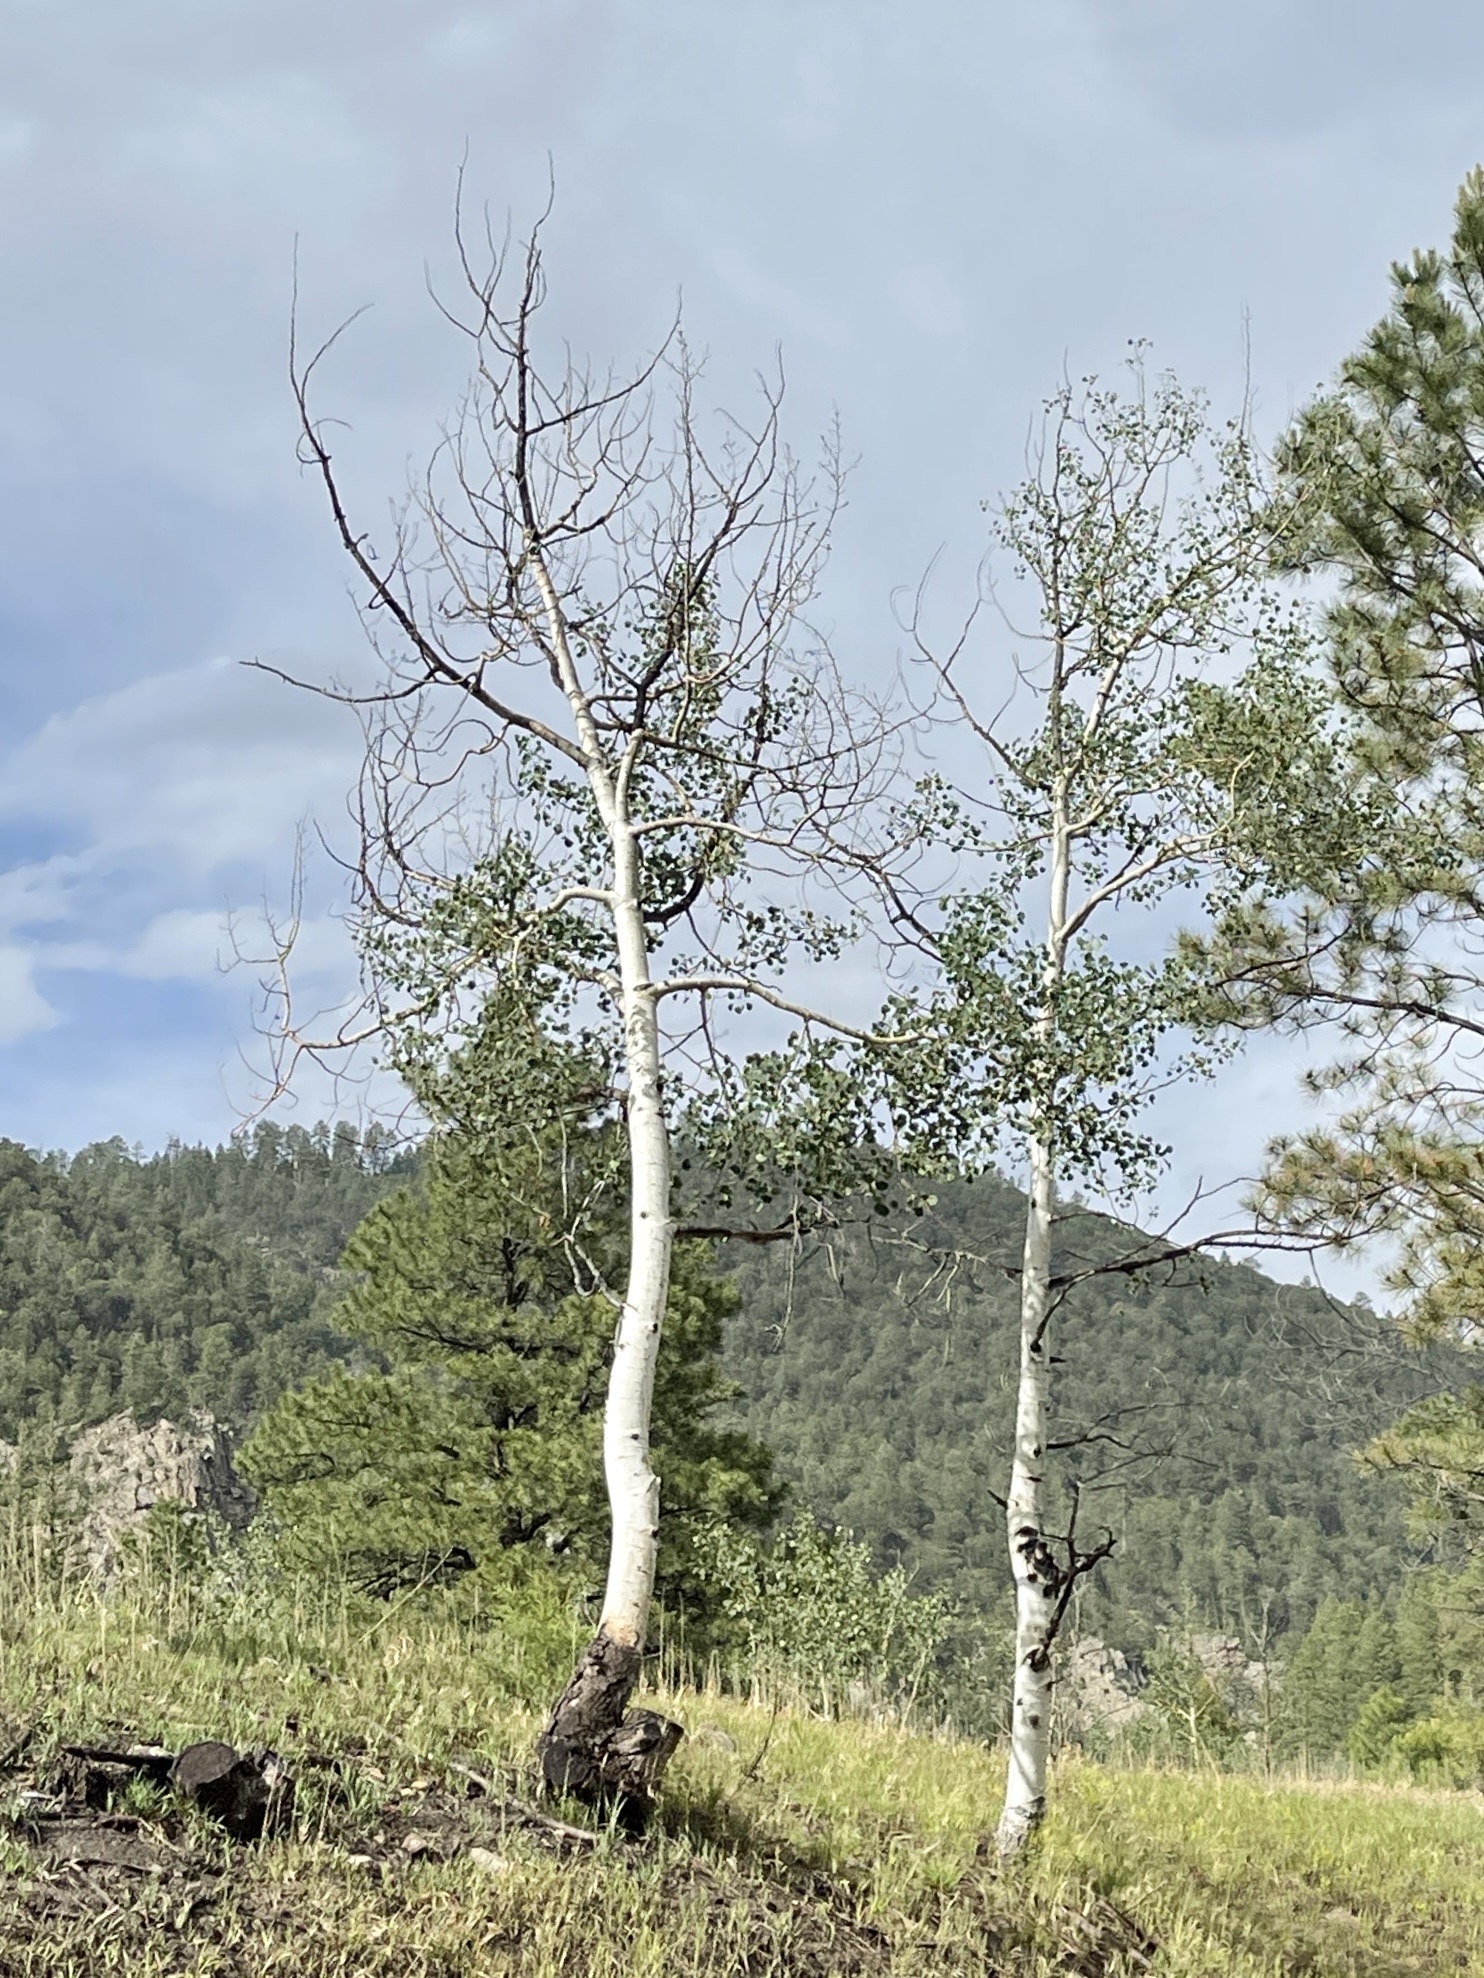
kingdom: Plantae
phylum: Tracheophyta
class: Magnoliopsida
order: Malpighiales
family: Salicaceae
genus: Populus
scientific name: Populus tremuloides
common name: Quaking aspen
